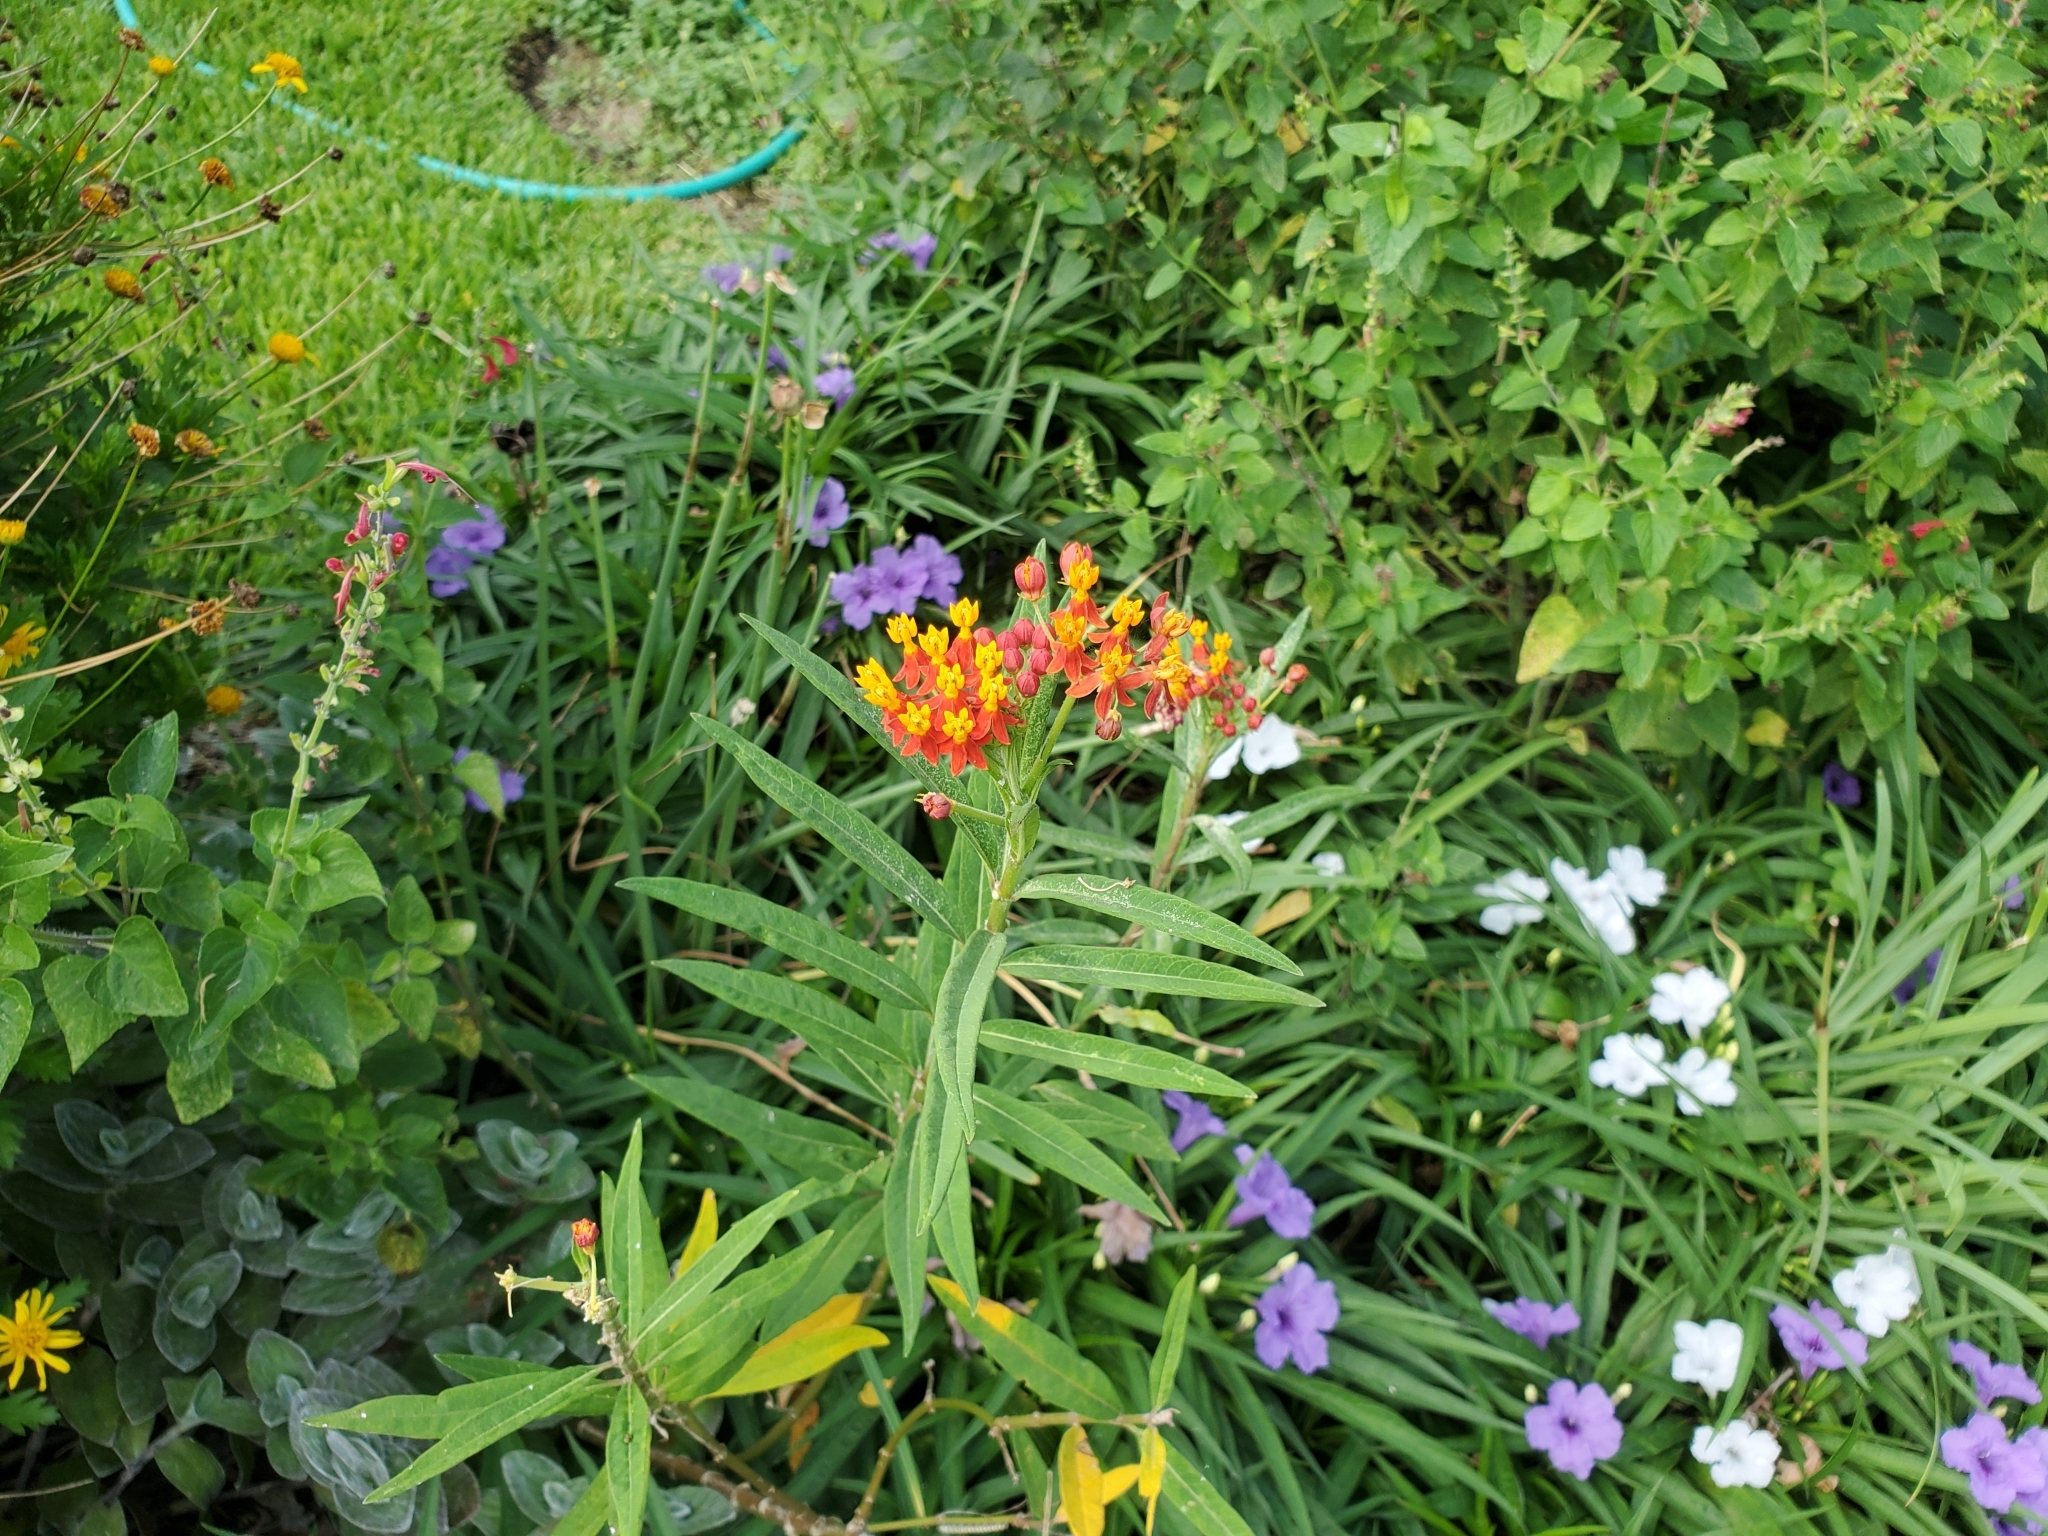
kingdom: Animalia
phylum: Arthropoda
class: Insecta
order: Lepidoptera
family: Nymphalidae
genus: Danaus
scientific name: Danaus gilippus
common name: Queen
